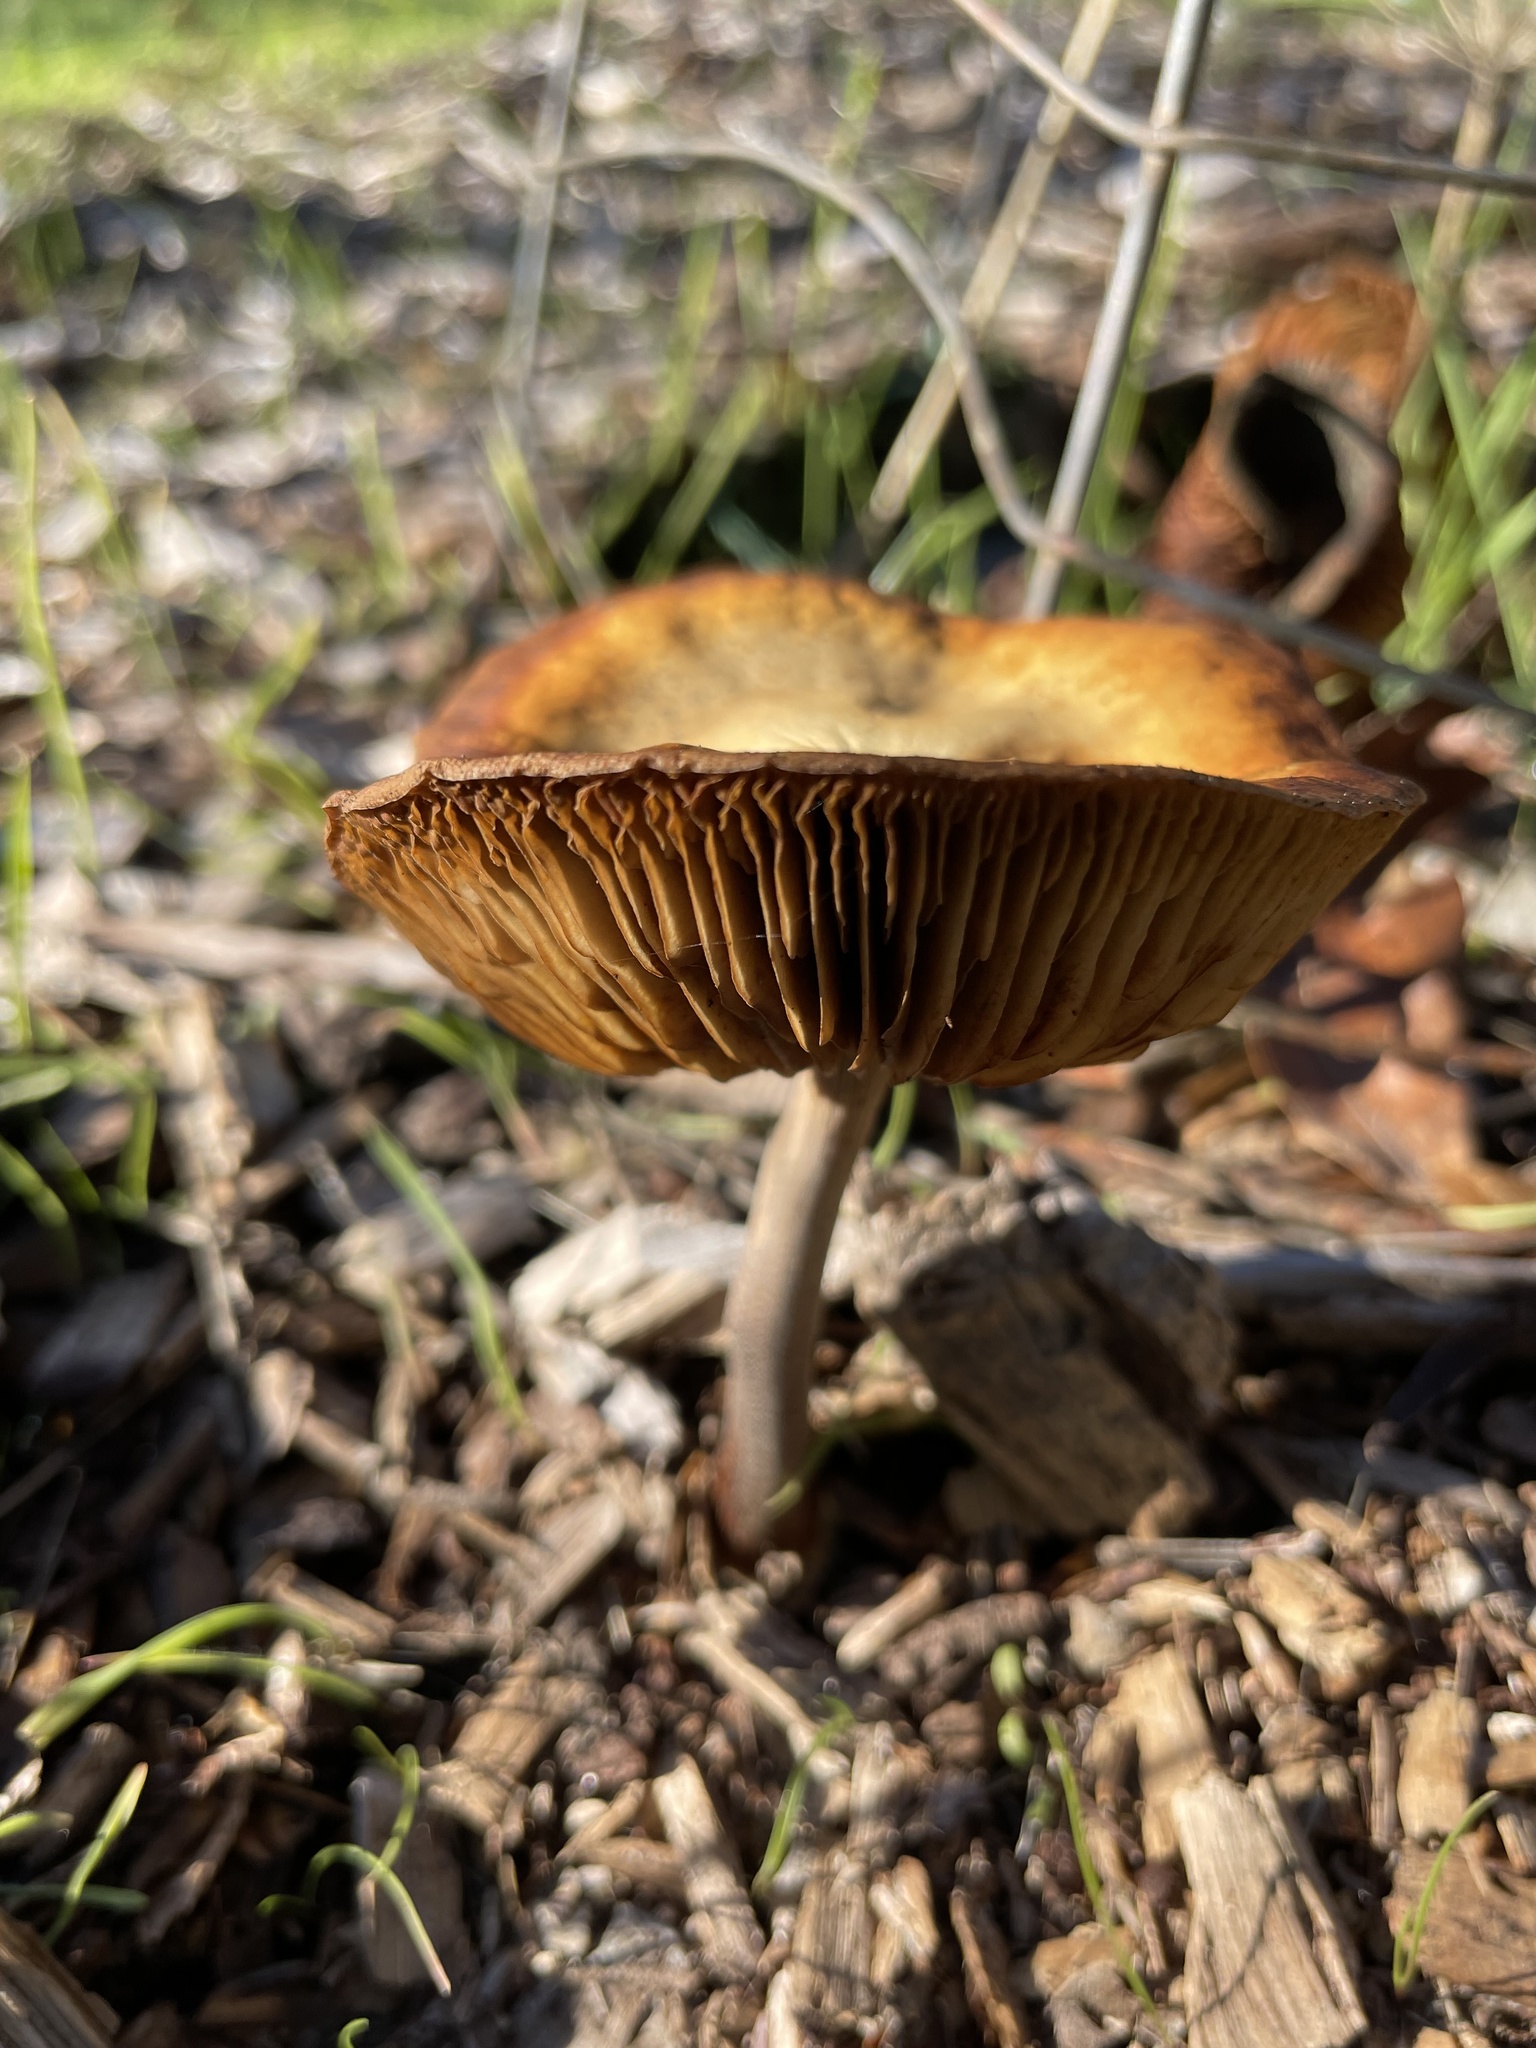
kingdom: Fungi
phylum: Basidiomycota
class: Agaricomycetes
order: Agaricales
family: Strophariaceae
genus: Agrocybe
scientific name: Agrocybe praecox
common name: Spring fieldcap
